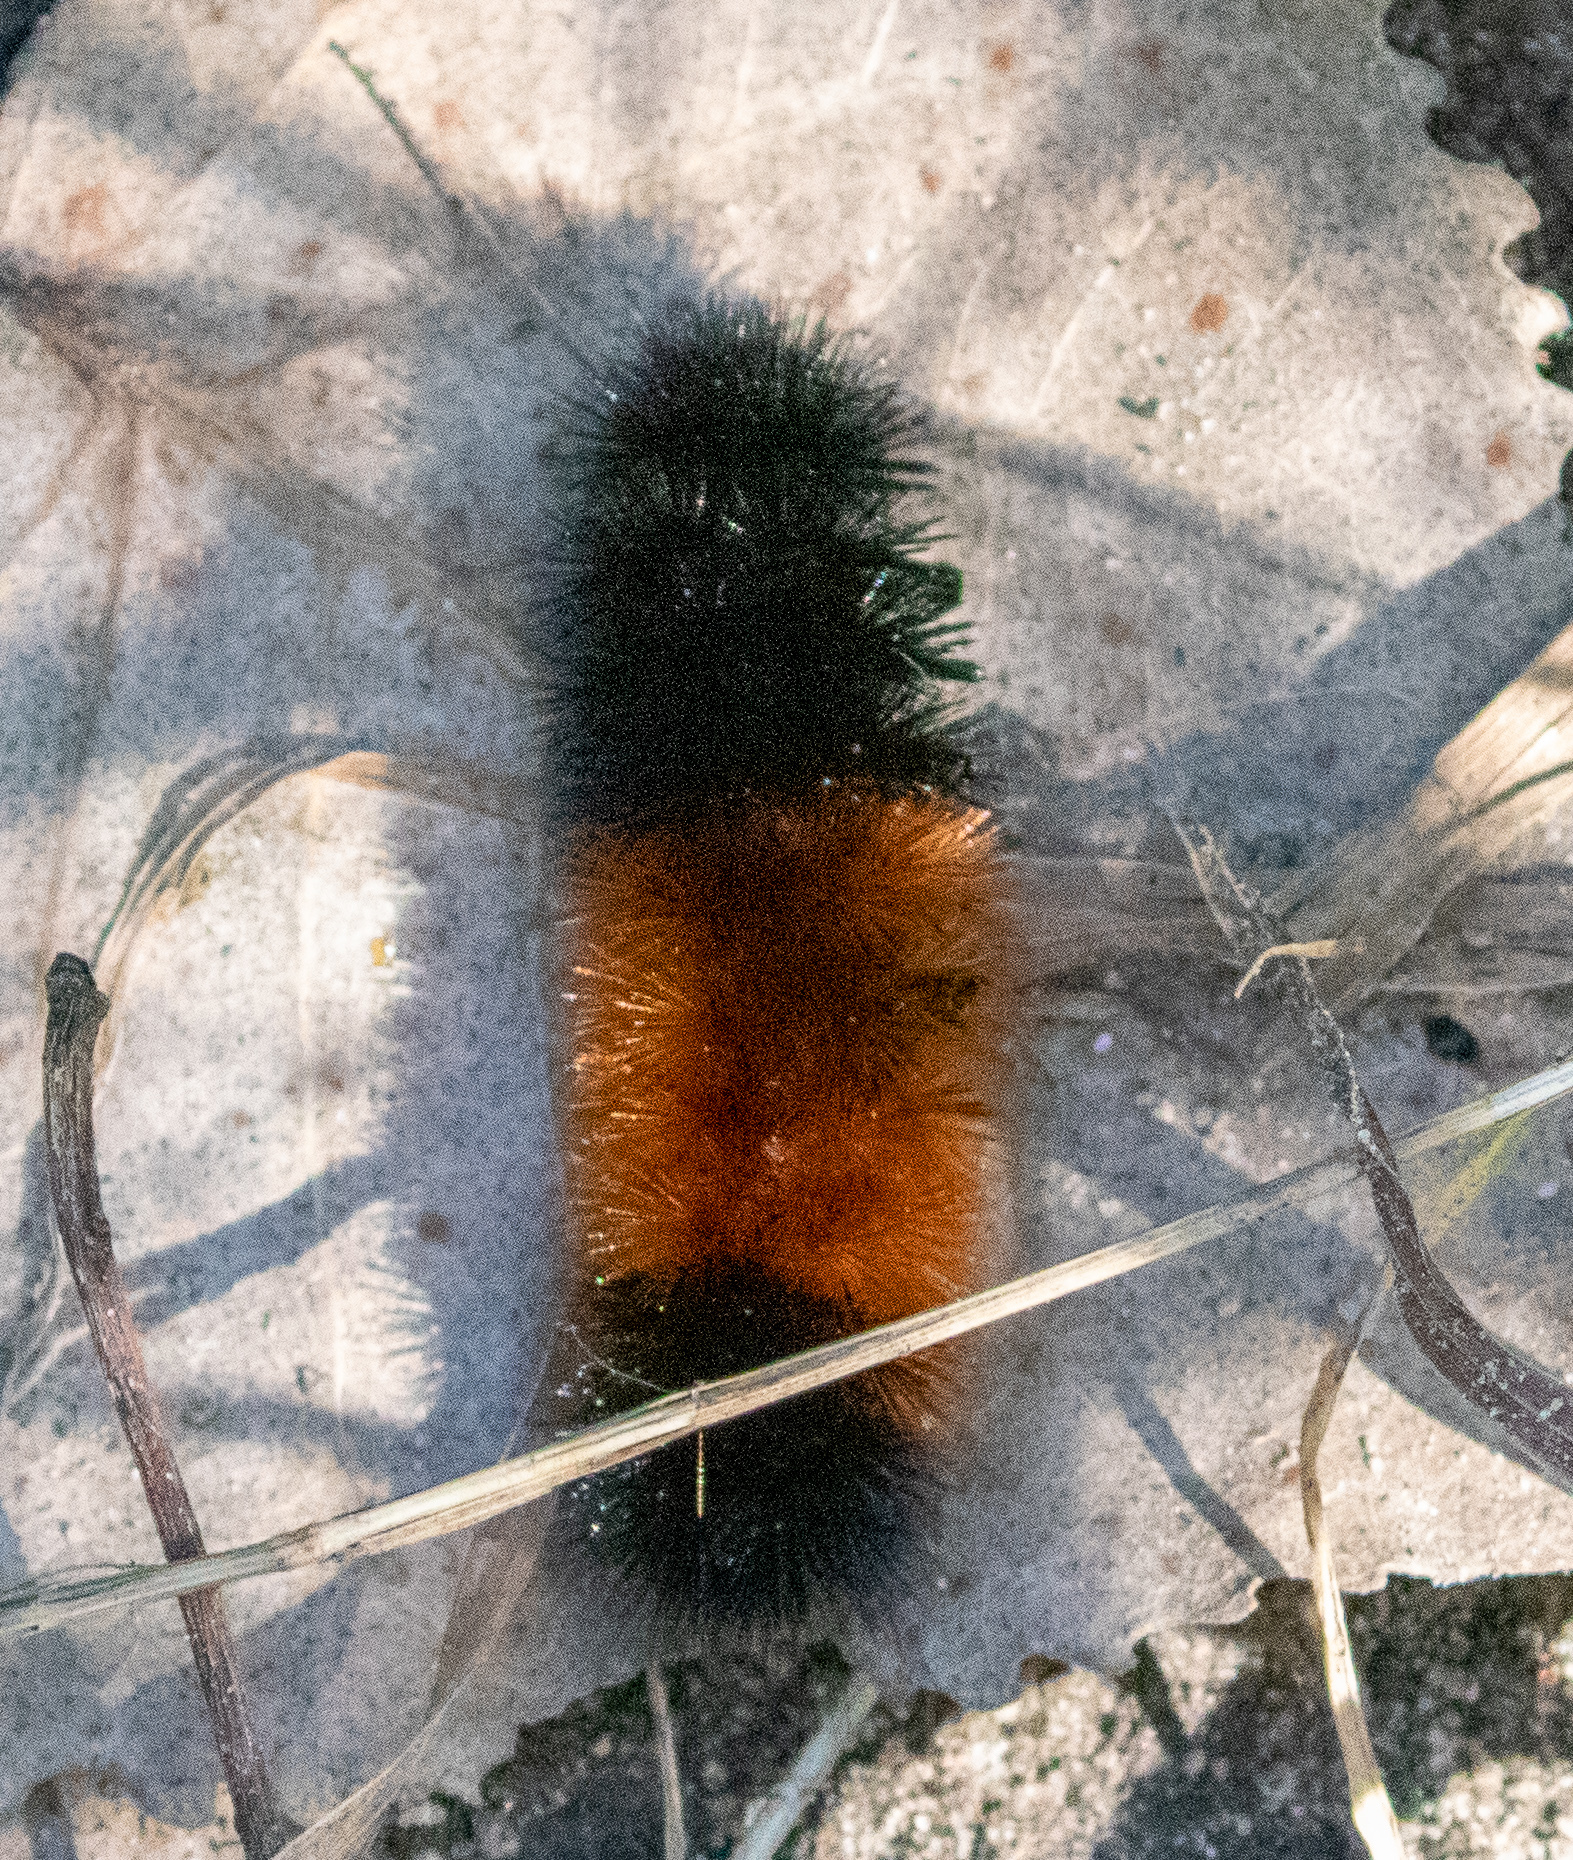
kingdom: Animalia
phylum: Arthropoda
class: Insecta
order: Lepidoptera
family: Erebidae
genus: Pyrrharctia
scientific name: Pyrrharctia isabella
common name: Isabella tiger moth
